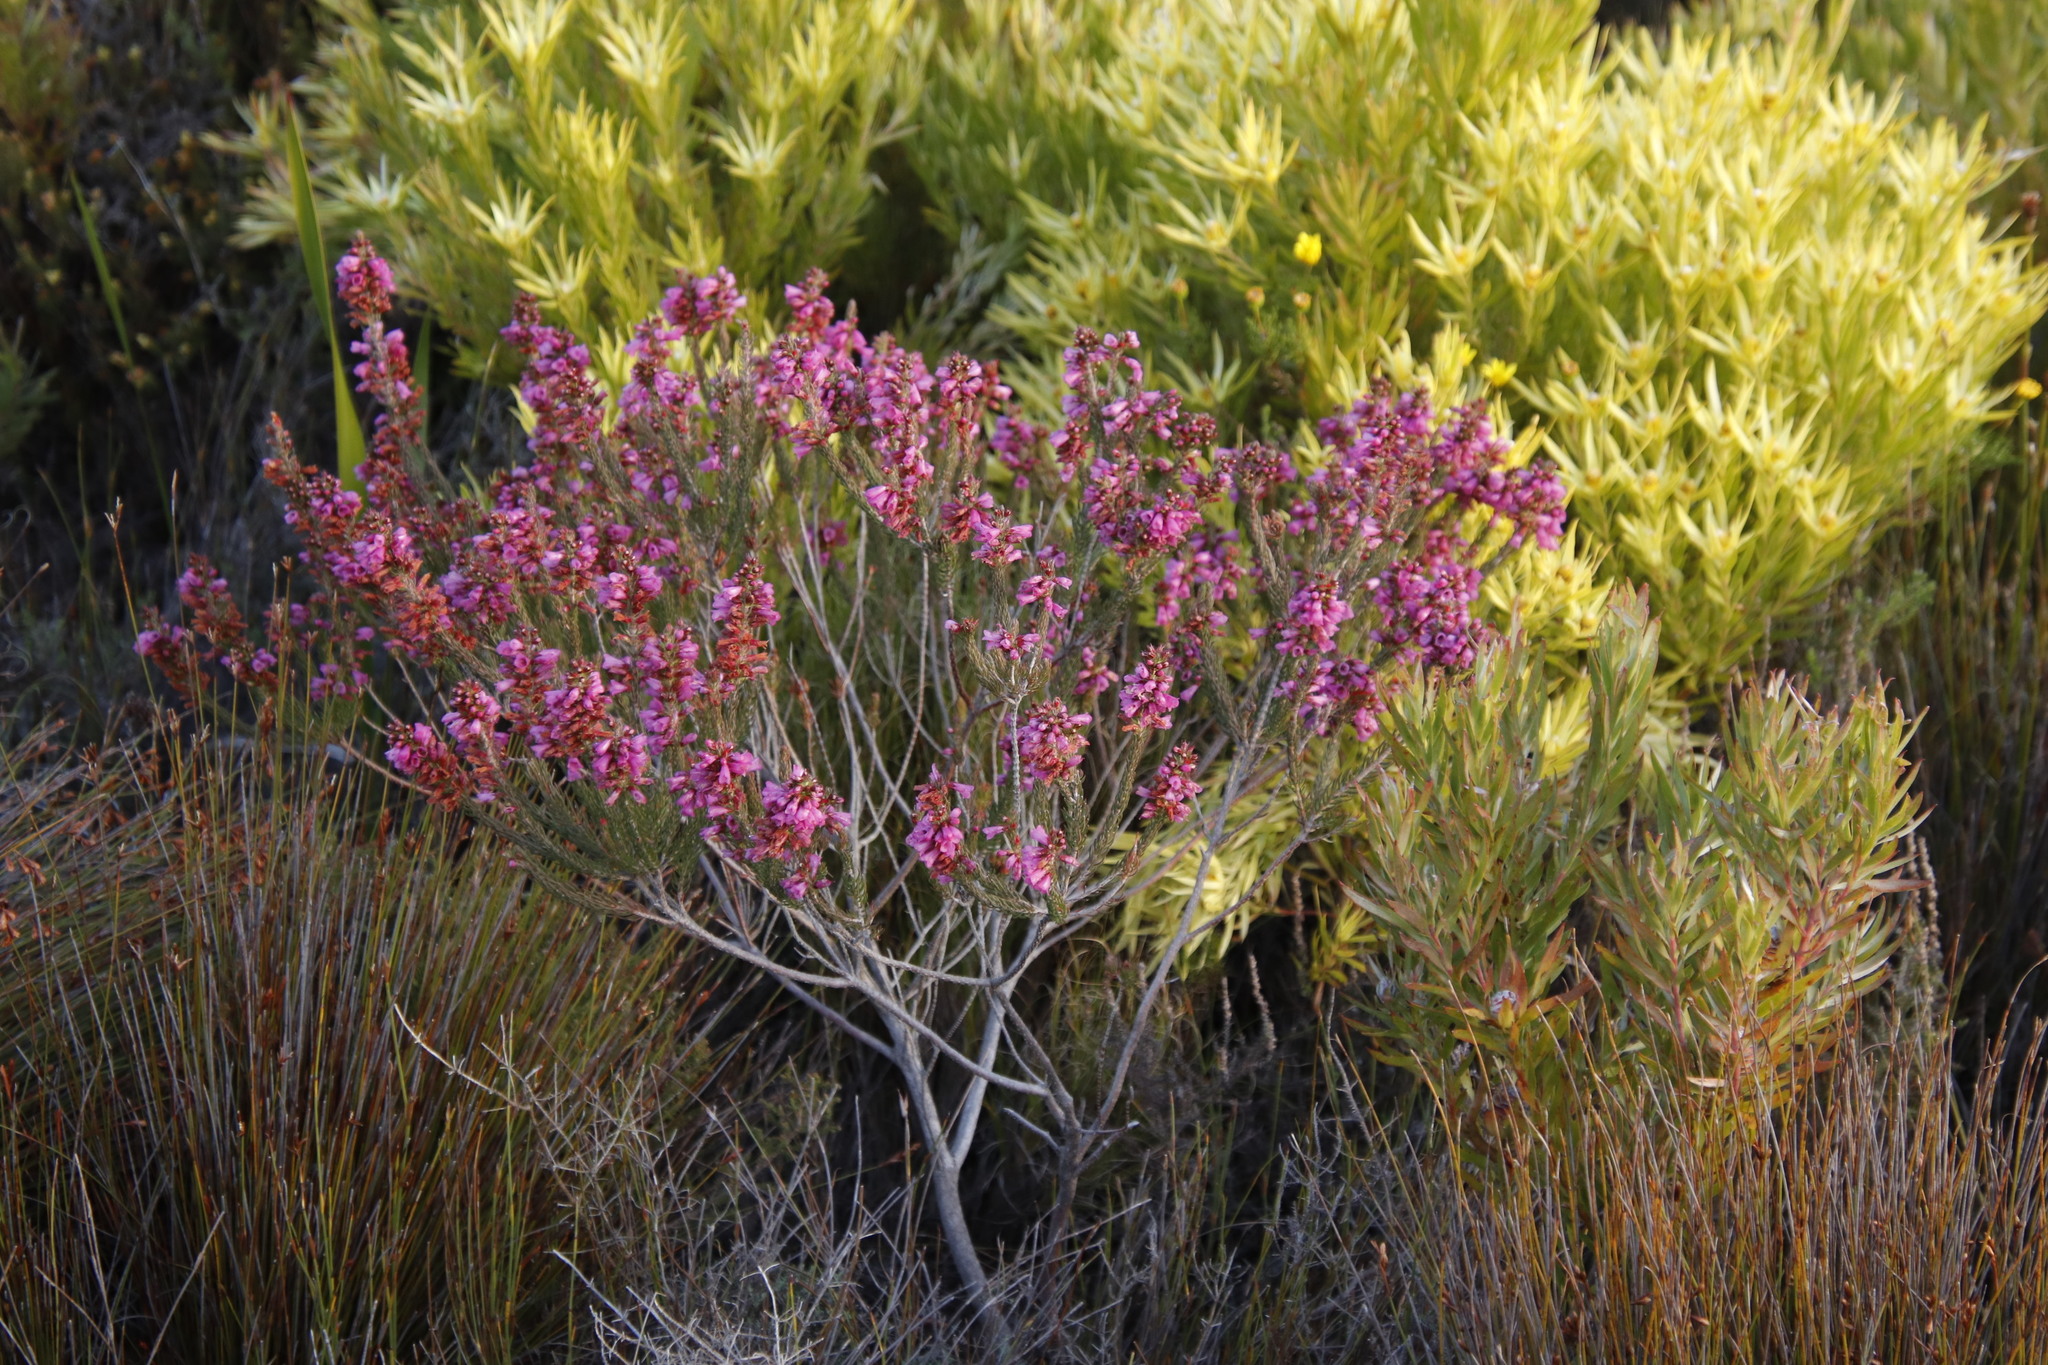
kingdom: Plantae
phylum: Tracheophyta
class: Magnoliopsida
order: Proteales
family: Proteaceae
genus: Leucadendron
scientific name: Leucadendron xanthoconus
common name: Sickle-leaf conebush
